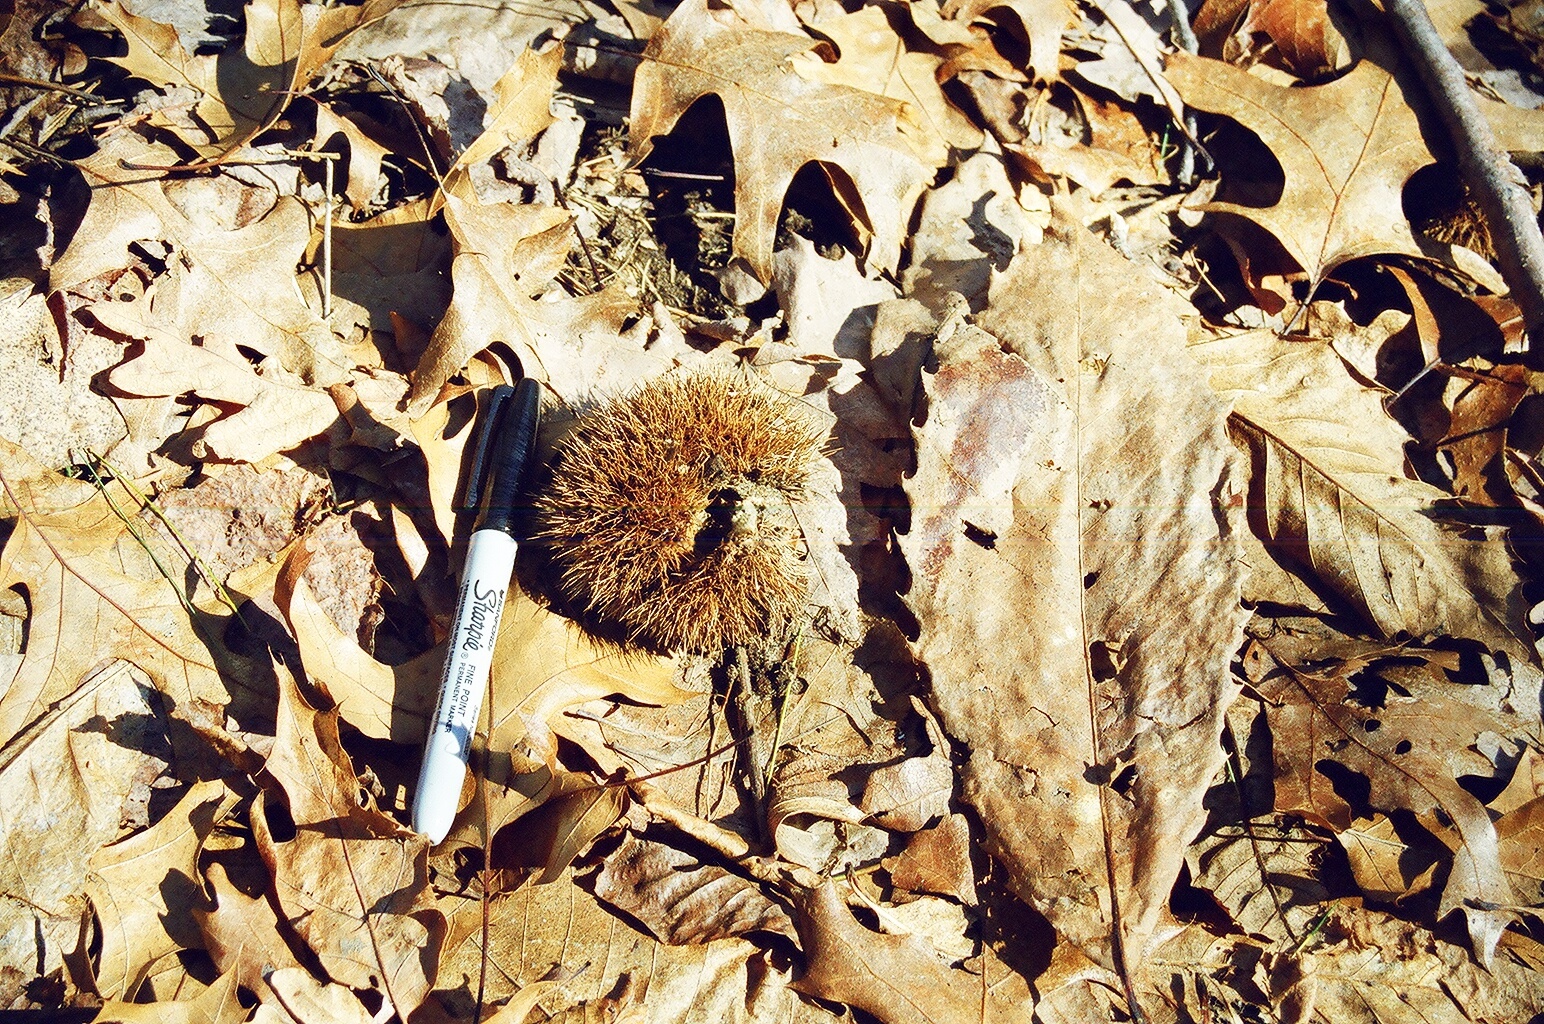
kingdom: Plantae
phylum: Tracheophyta
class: Magnoliopsida
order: Fagales
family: Fagaceae
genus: Castanea
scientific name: Castanea dentata
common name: American chestnut
